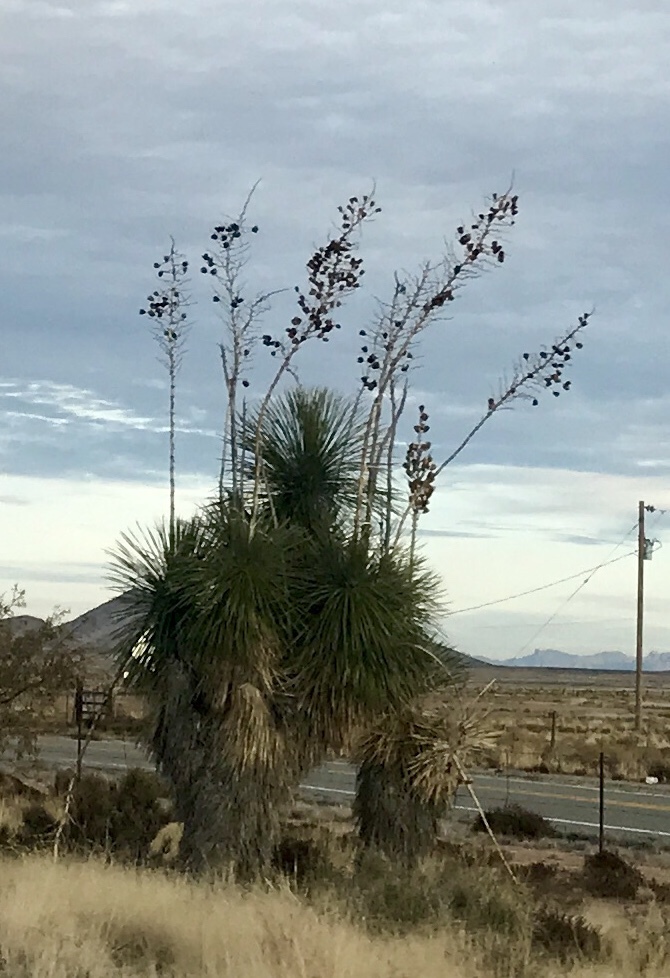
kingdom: Plantae
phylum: Tracheophyta
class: Liliopsida
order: Asparagales
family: Asparagaceae
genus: Yucca
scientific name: Yucca elata
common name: Palmella
